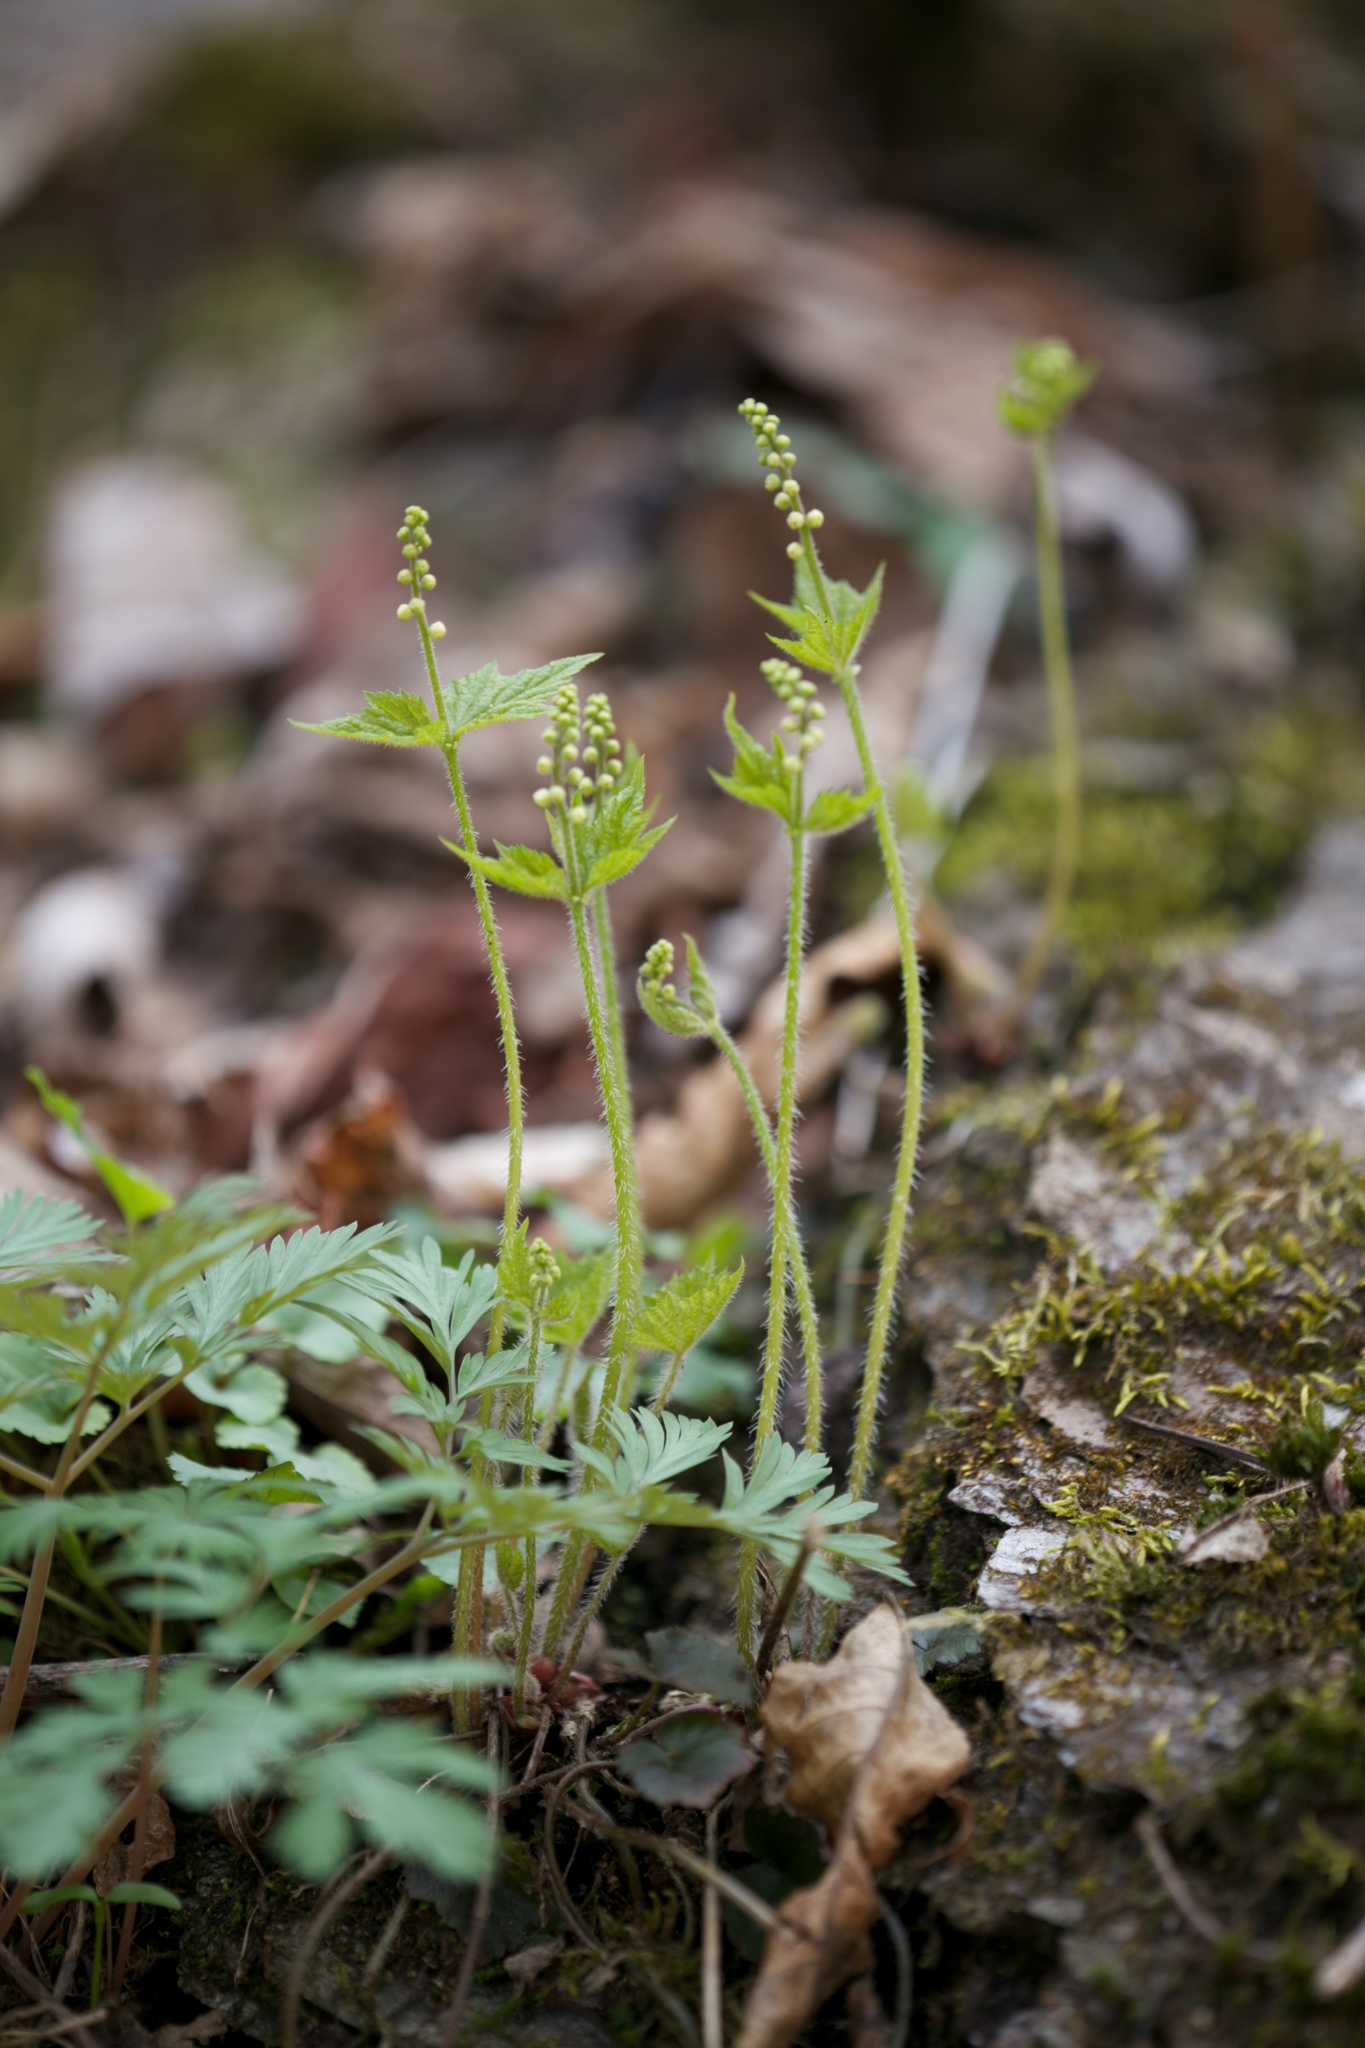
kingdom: Plantae
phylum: Tracheophyta
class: Magnoliopsida
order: Saxifragales
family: Saxifragaceae
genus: Mitella
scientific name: Mitella diphylla
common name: Coolwort
